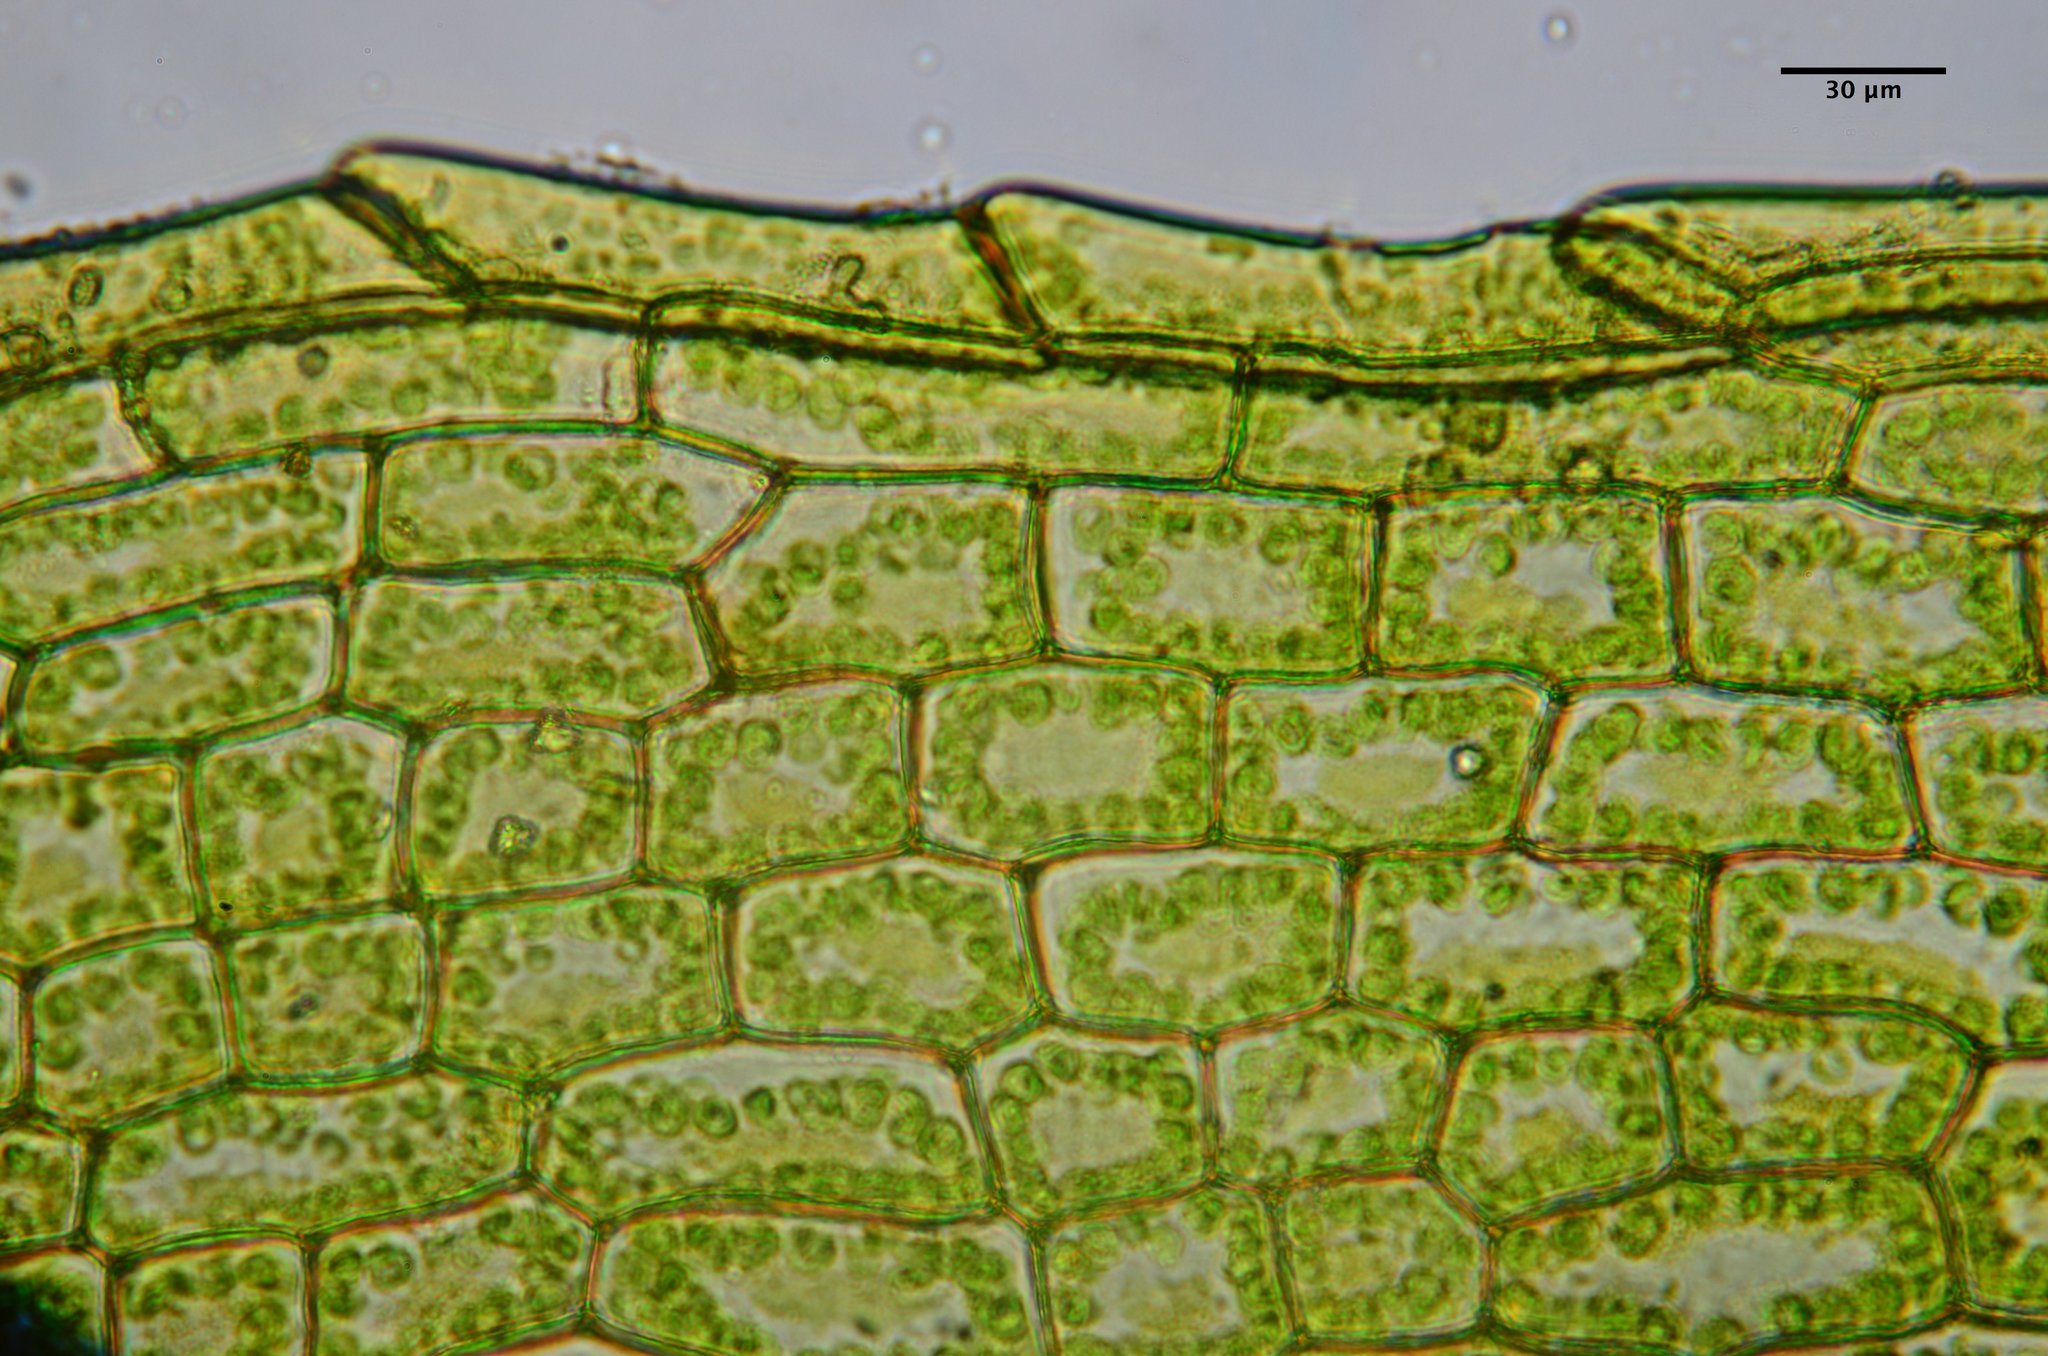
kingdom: Plantae
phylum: Bryophyta
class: Bryopsida
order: Funariales
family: Funariaceae
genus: Funaria
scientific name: Funaria hygrometrica
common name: Common cord moss
